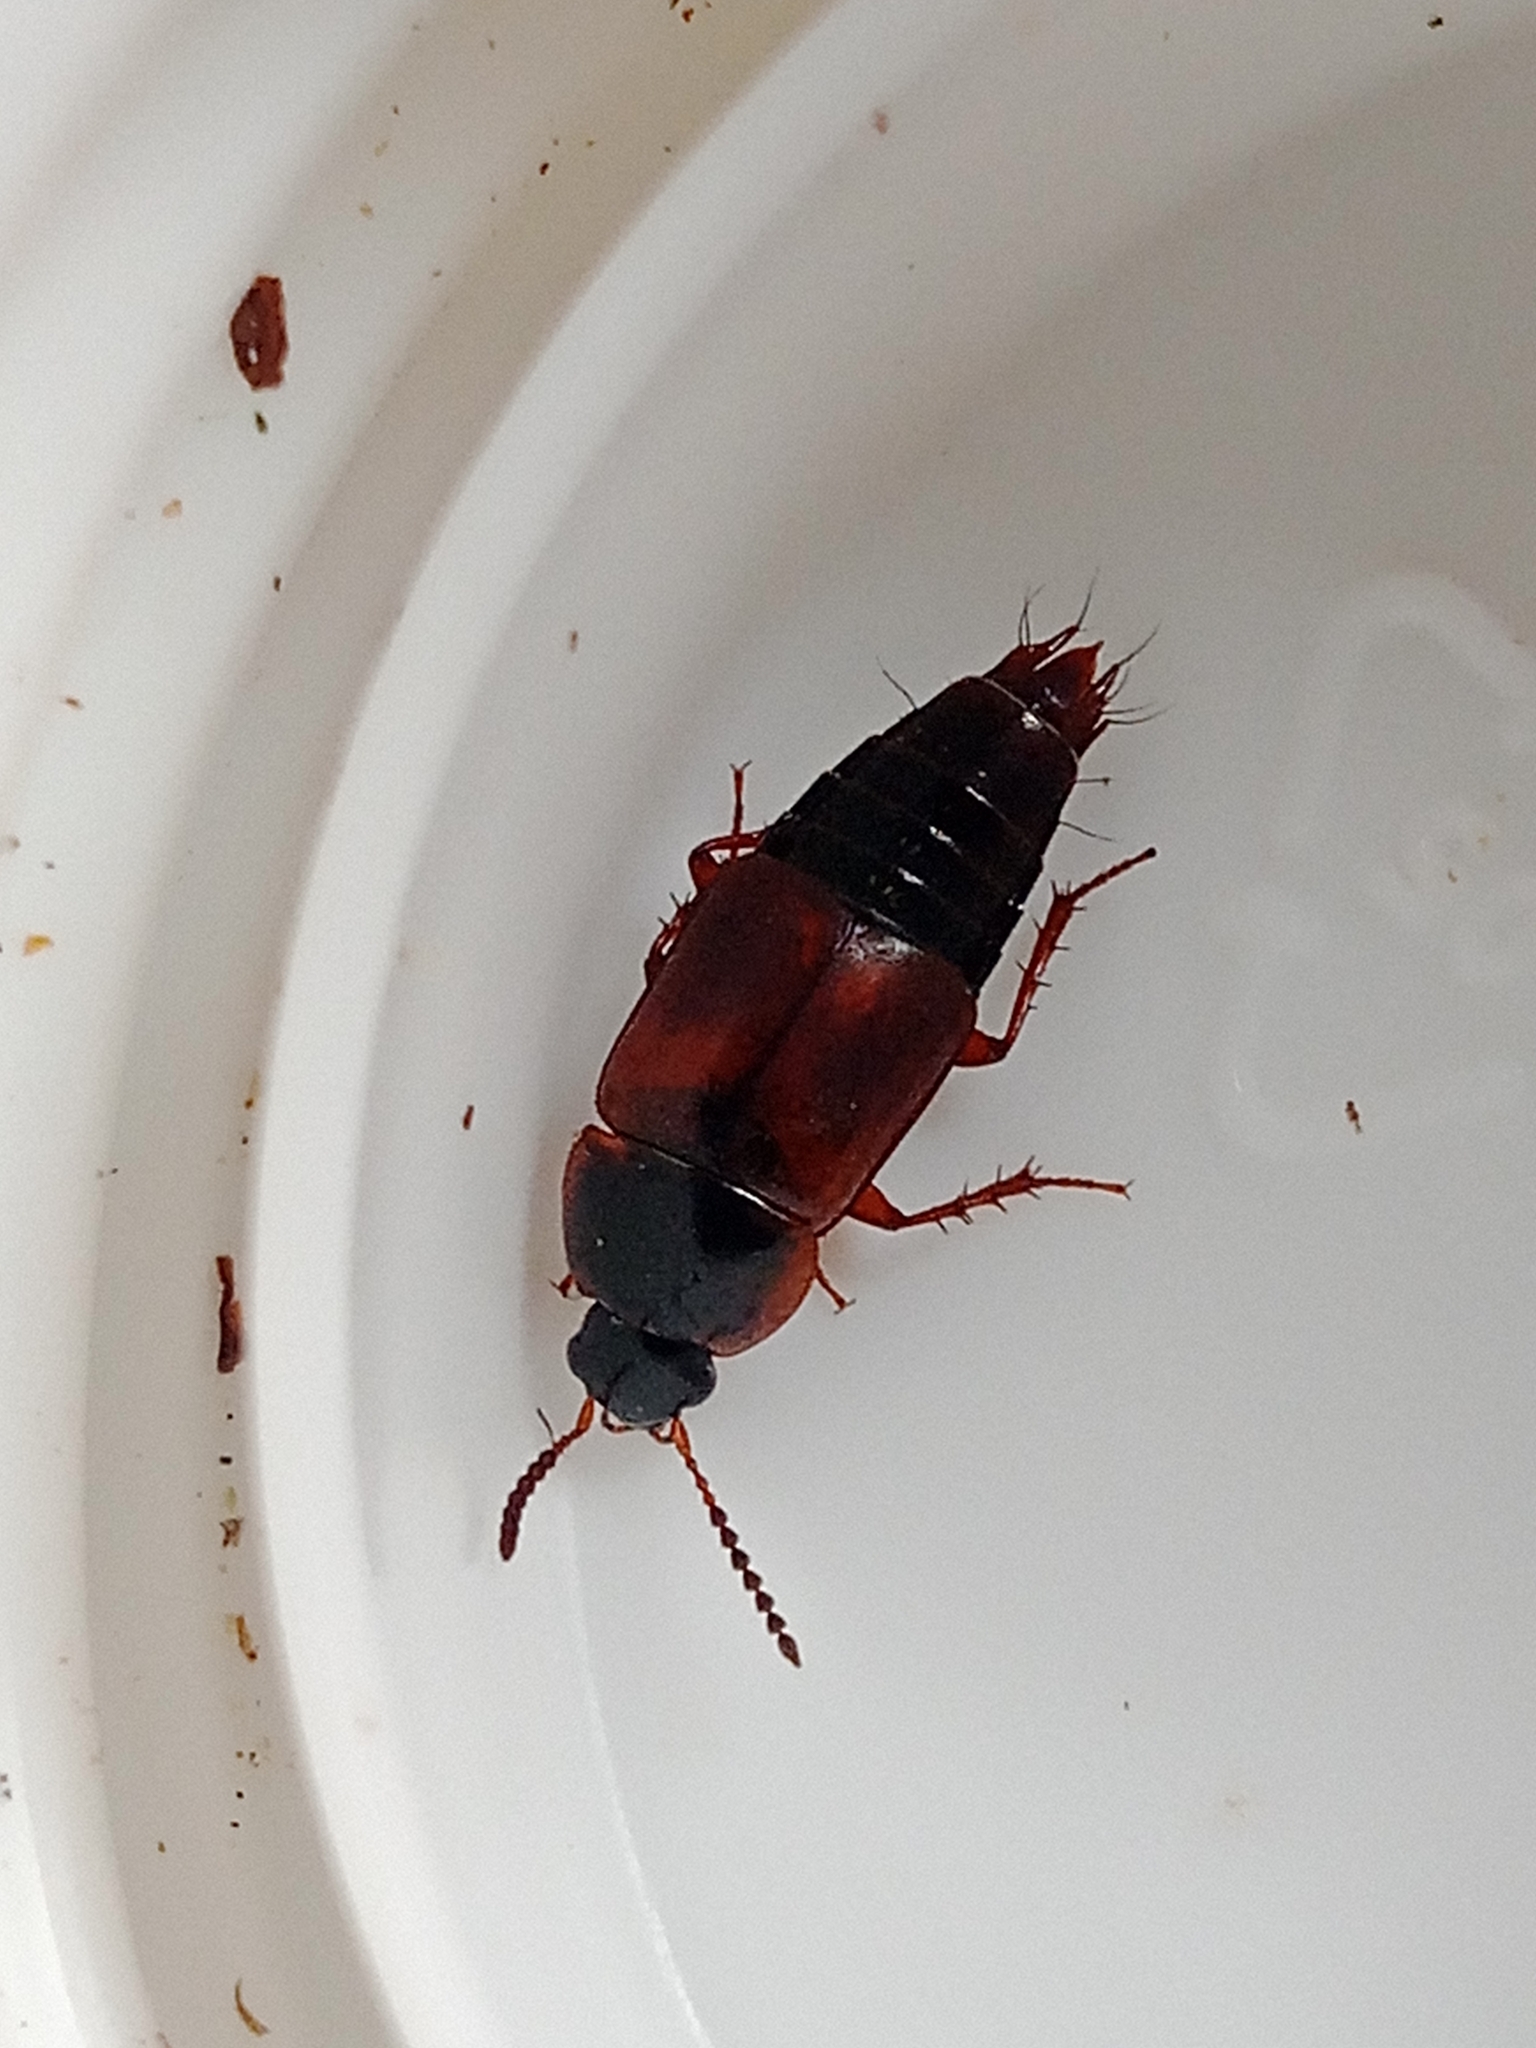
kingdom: Animalia
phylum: Arthropoda
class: Insecta
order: Coleoptera
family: Staphylinidae
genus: Tachinus
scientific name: Tachinus proximus
